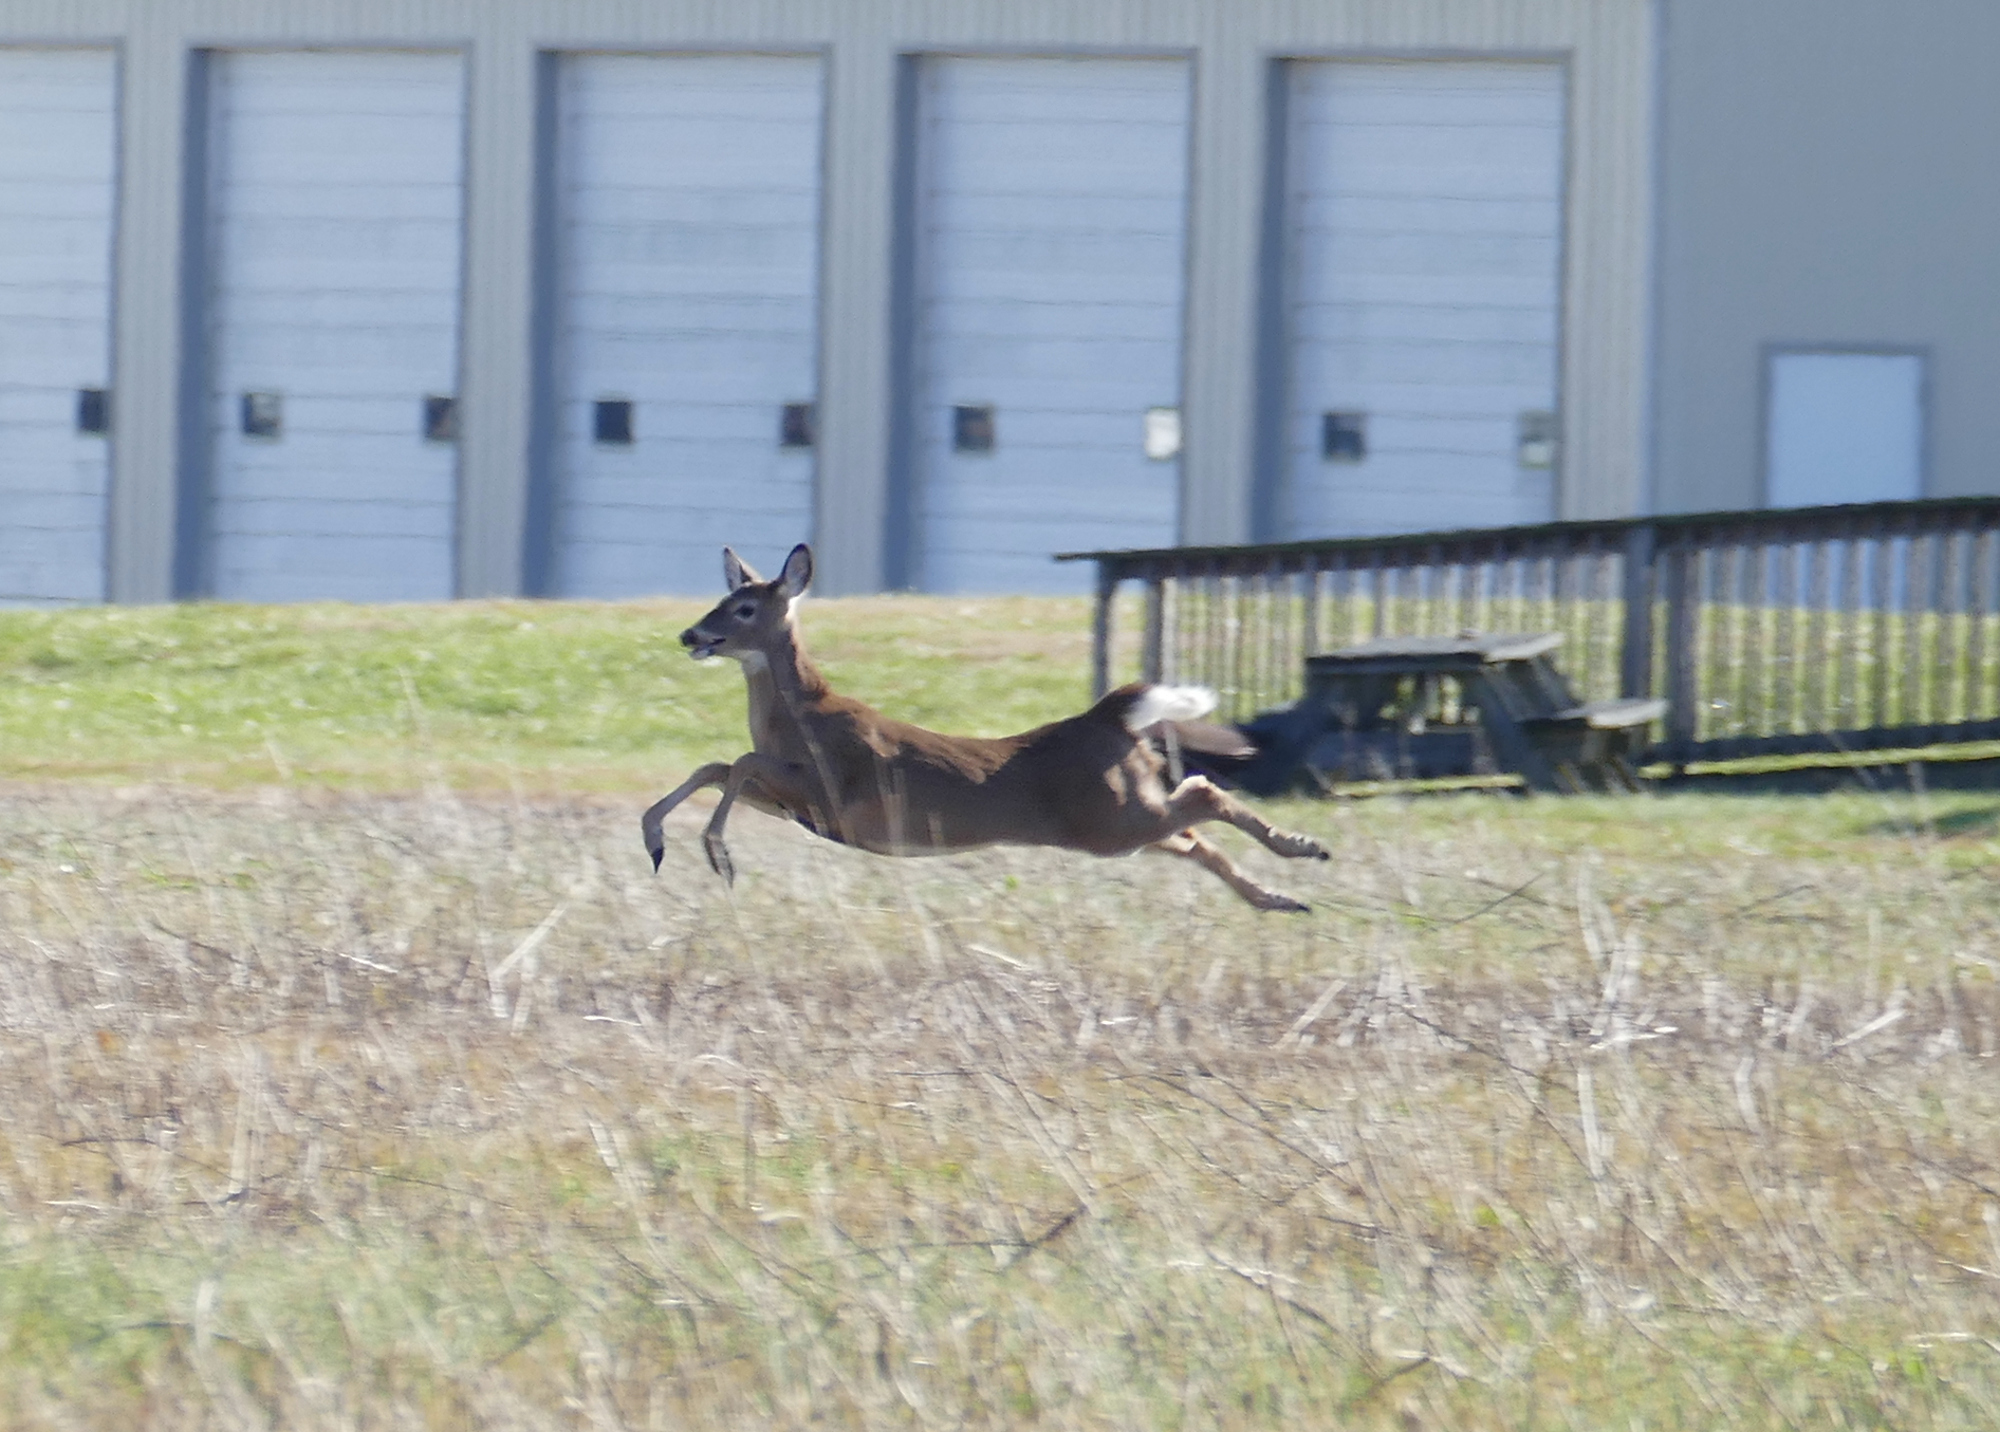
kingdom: Animalia
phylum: Chordata
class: Mammalia
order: Artiodactyla
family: Cervidae
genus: Odocoileus
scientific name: Odocoileus virginianus
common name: White-tailed deer
